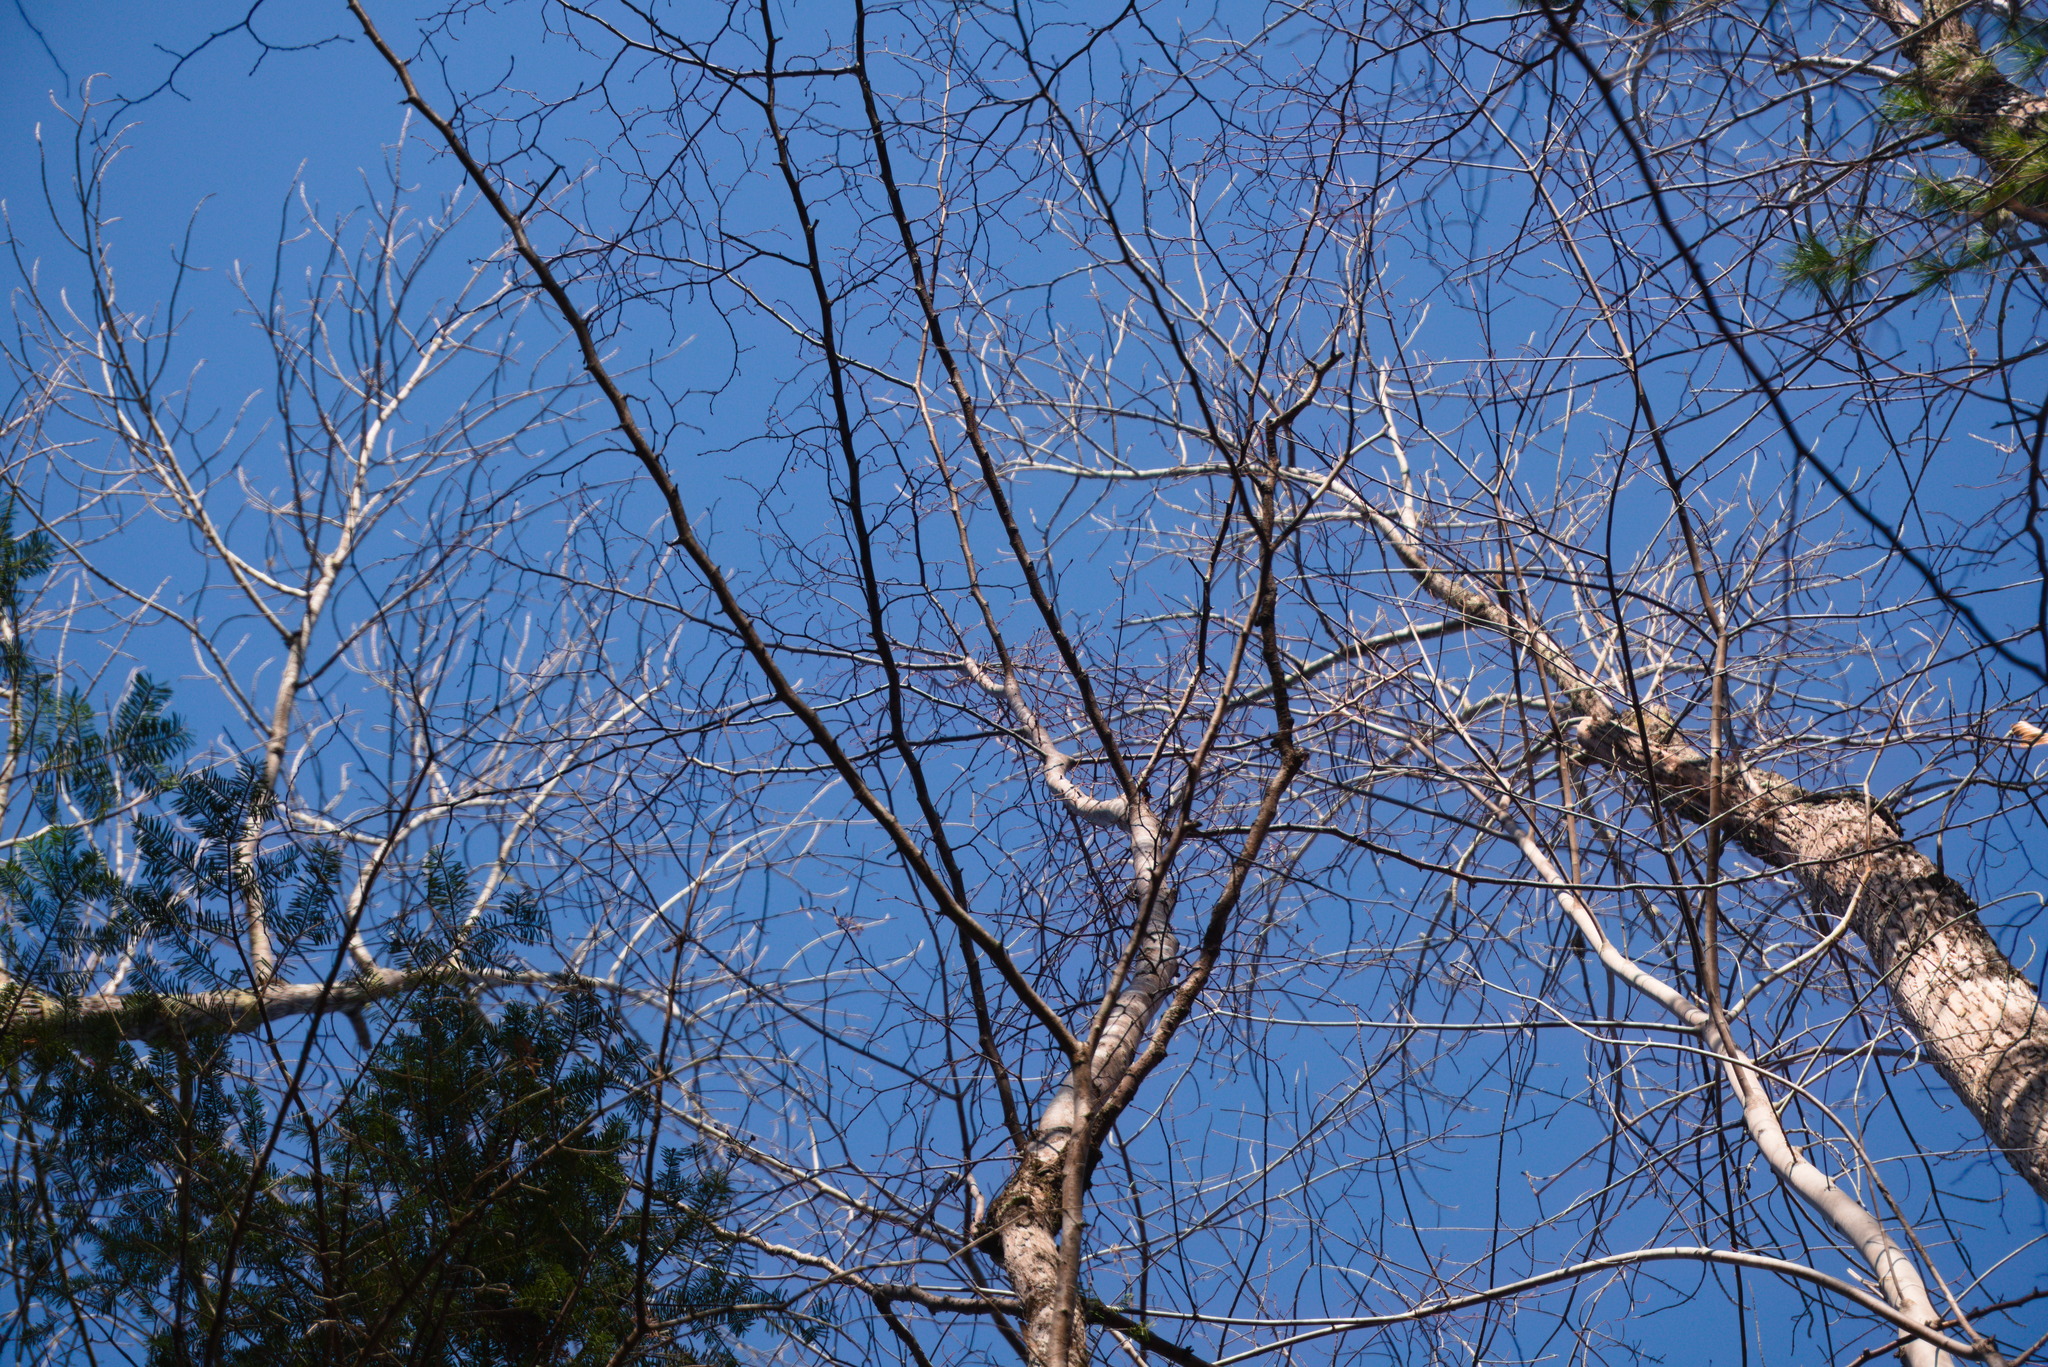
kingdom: Plantae
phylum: Tracheophyta
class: Magnoliopsida
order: Fagales
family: Betulaceae
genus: Ostrya
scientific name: Ostrya virginiana
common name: Ironwood
